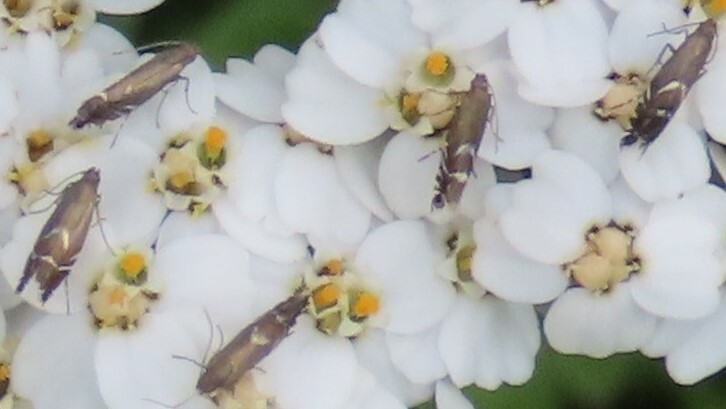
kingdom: Animalia
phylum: Arthropoda
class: Insecta
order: Lepidoptera
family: Glyphipterigidae
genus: Glyphipterix
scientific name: Glyphipterix simpliciella
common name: Cocksfoot moth
